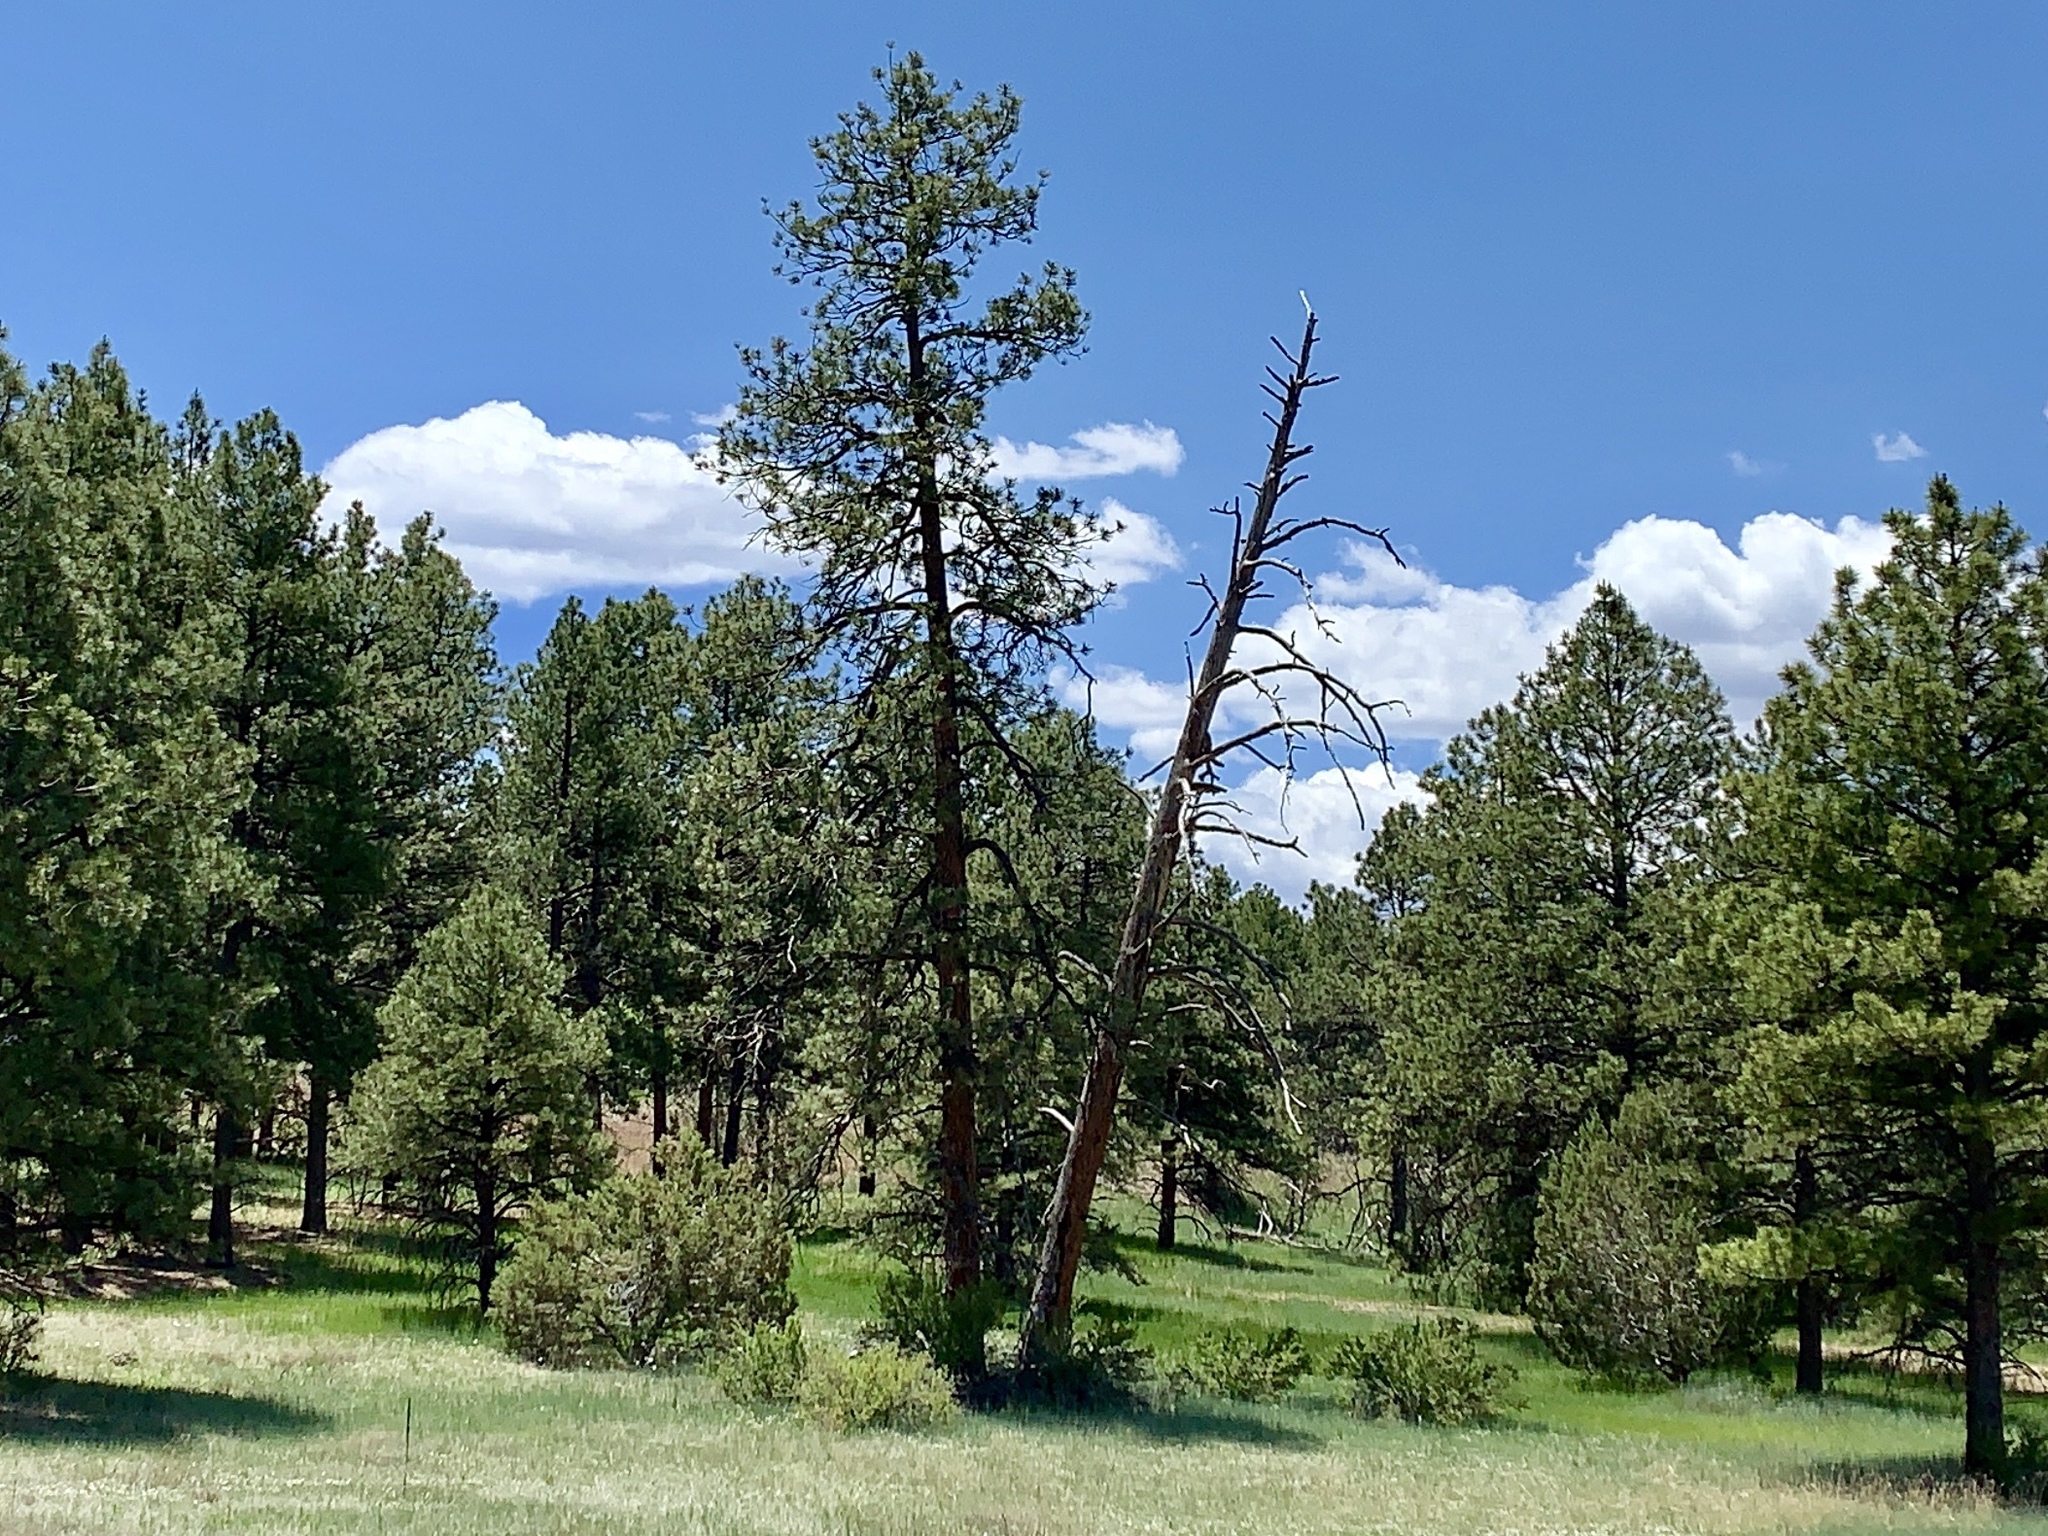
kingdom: Plantae
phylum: Tracheophyta
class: Pinopsida
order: Pinales
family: Pinaceae
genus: Pinus
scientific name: Pinus ponderosa
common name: Western yellow-pine
